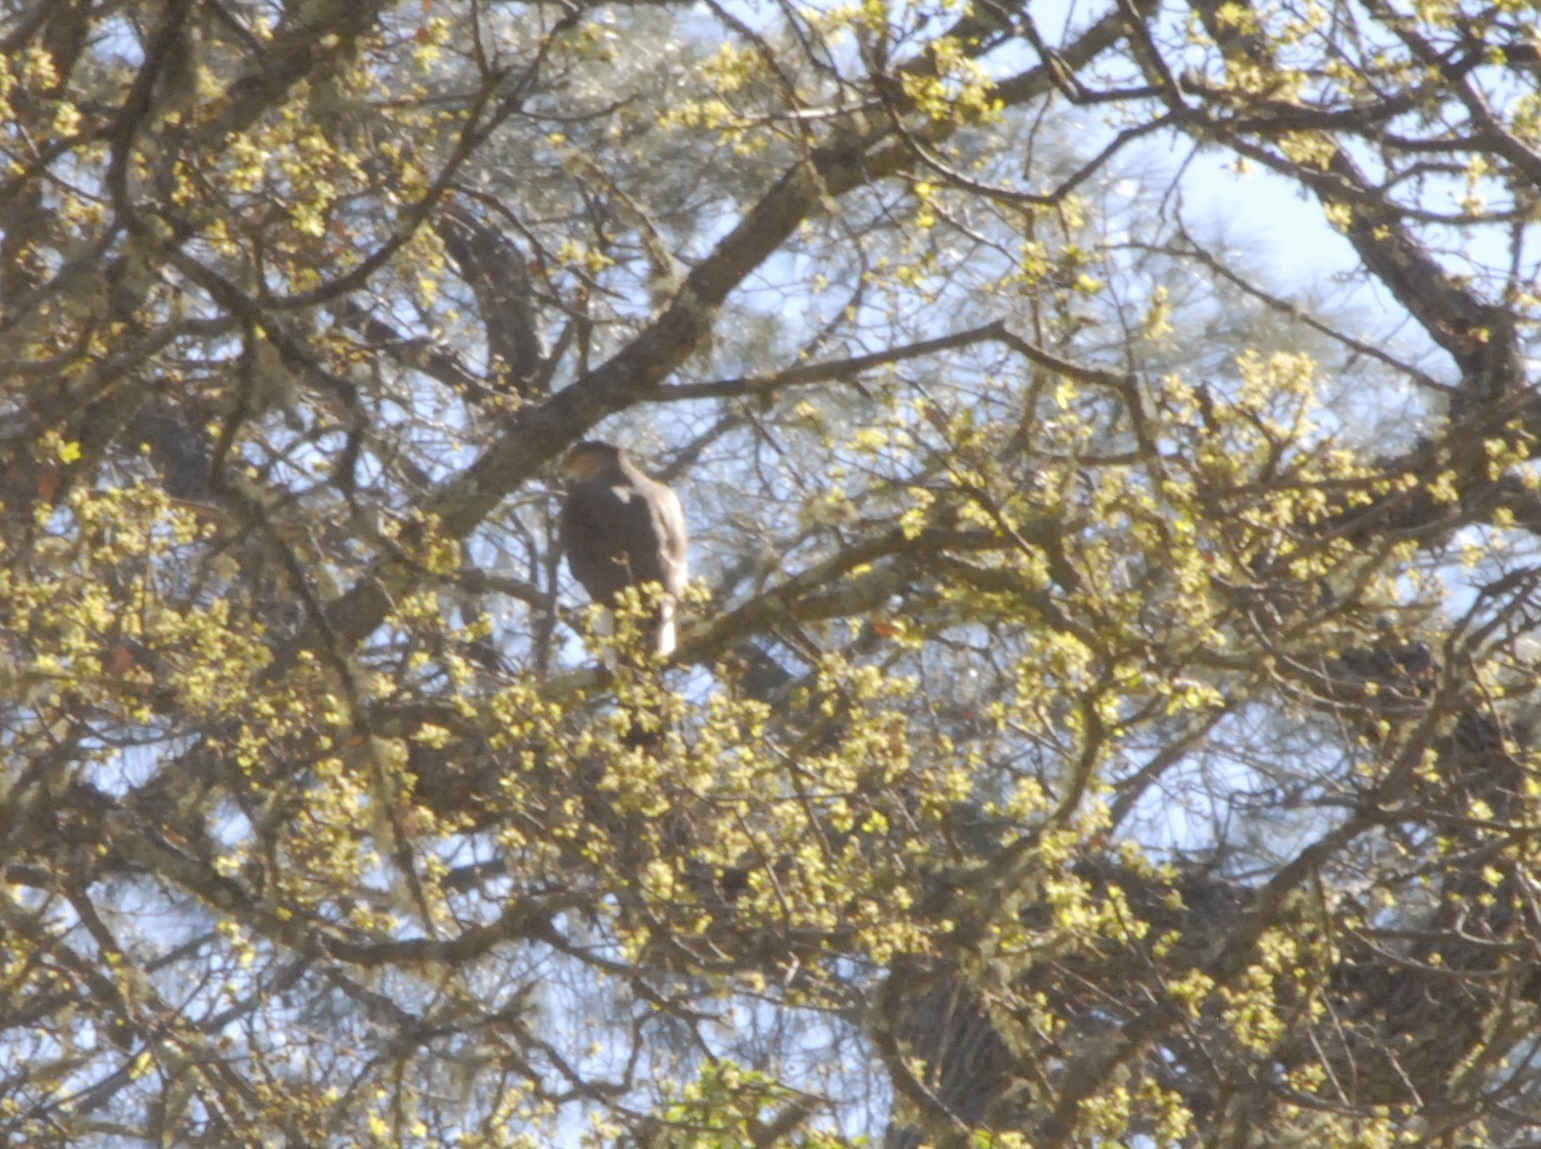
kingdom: Animalia
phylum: Chordata
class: Aves
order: Accipitriformes
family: Accipitridae
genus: Accipiter
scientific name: Accipiter cooperii
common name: Cooper's hawk
